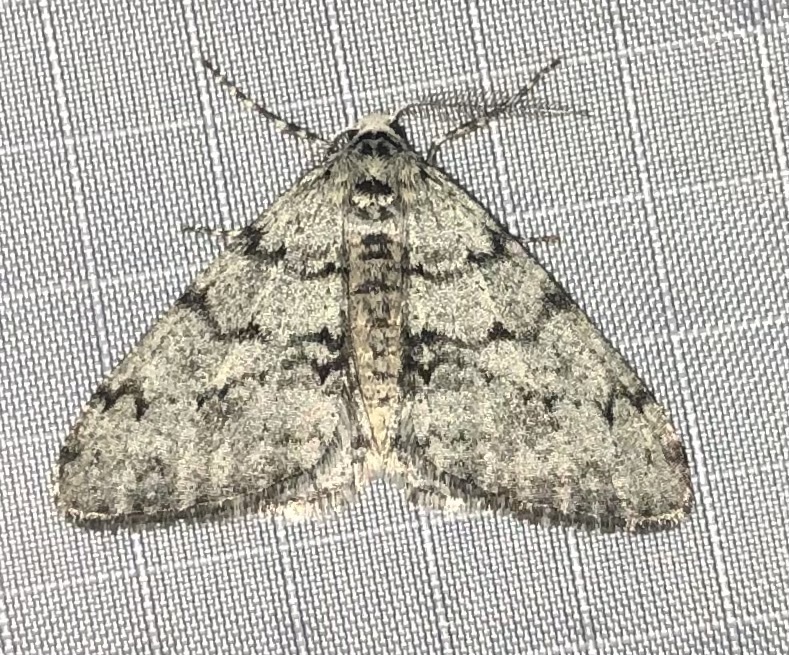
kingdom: Animalia
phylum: Arthropoda
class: Insecta
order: Lepidoptera
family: Geometridae
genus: Phigalia
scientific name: Phigalia strigataria
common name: Small phigalia
